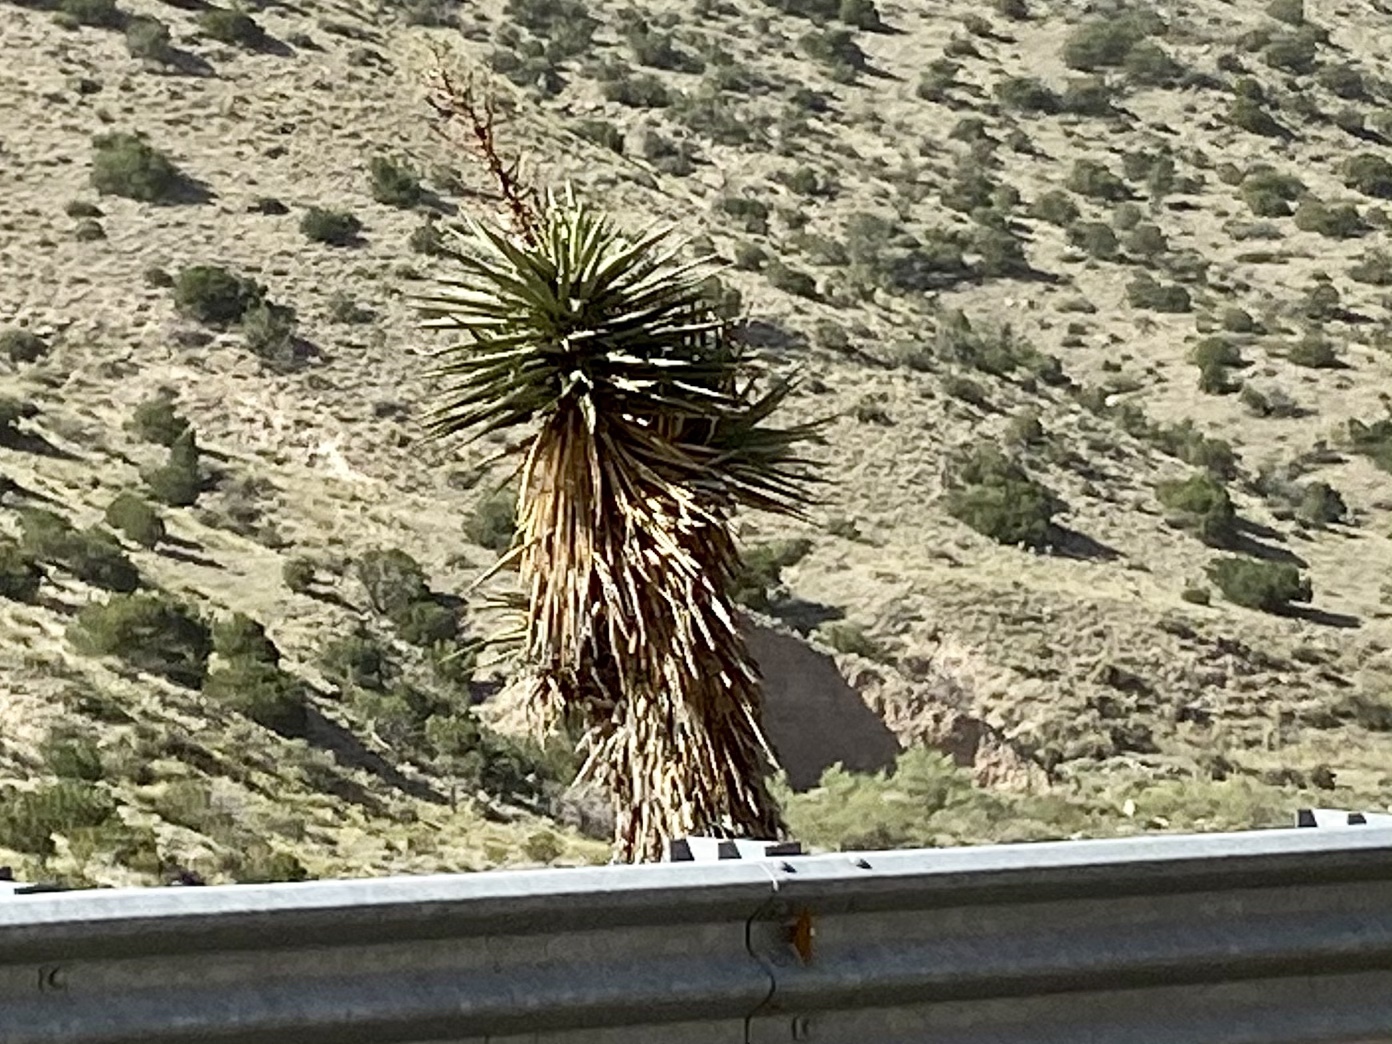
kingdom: Plantae
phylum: Tracheophyta
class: Liliopsida
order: Asparagales
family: Asparagaceae
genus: Yucca
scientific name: Yucca treculiana
